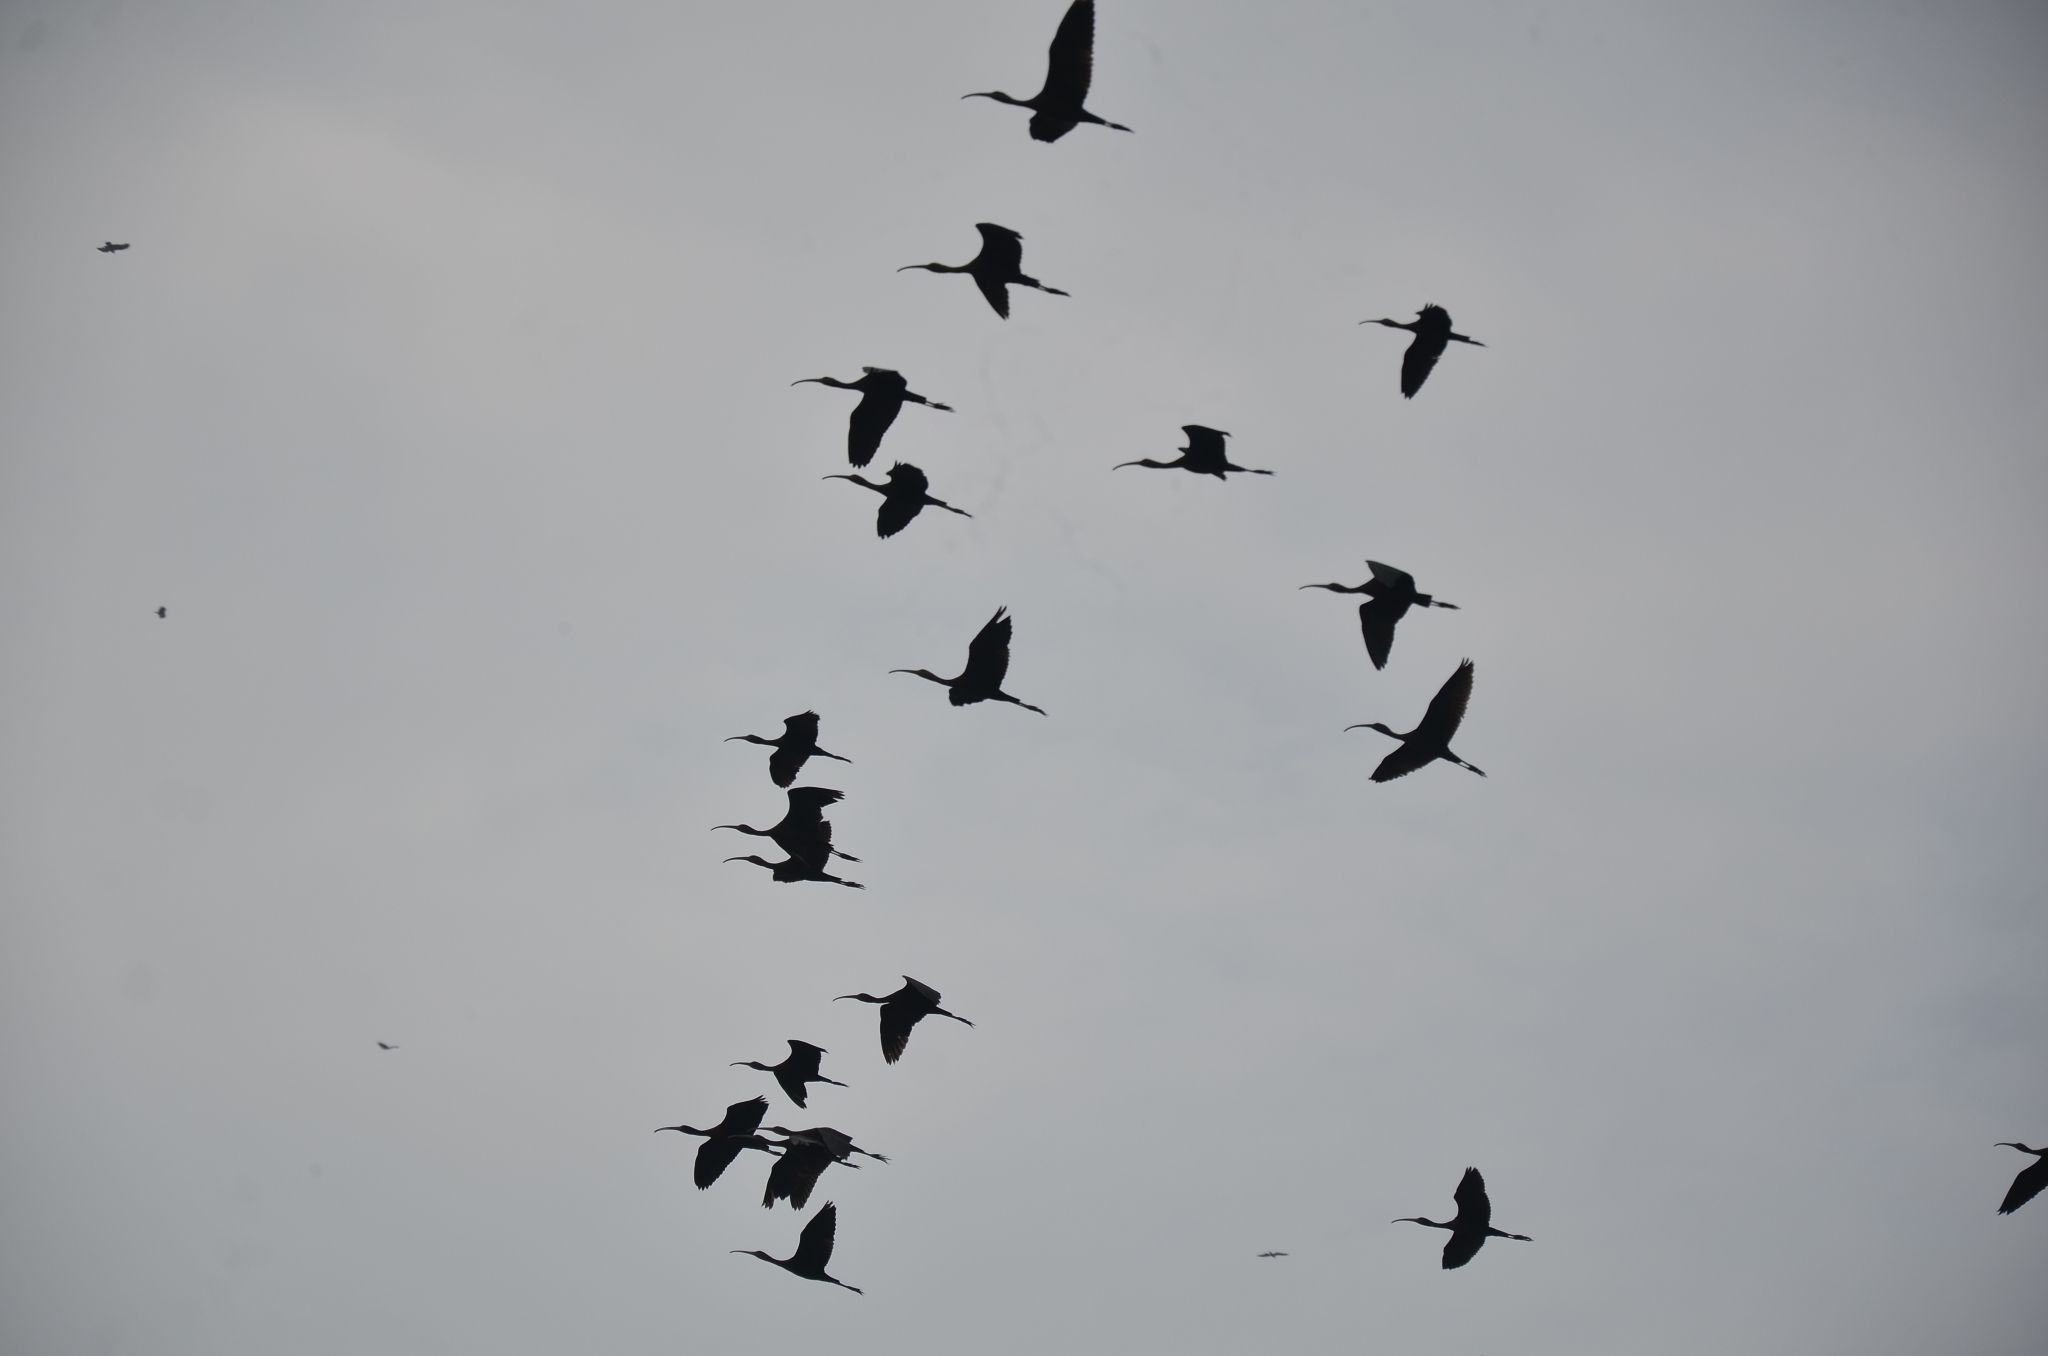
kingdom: Animalia
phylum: Chordata
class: Aves
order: Pelecaniformes
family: Threskiornithidae
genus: Plegadis
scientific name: Plegadis falcinellus
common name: Glossy ibis
